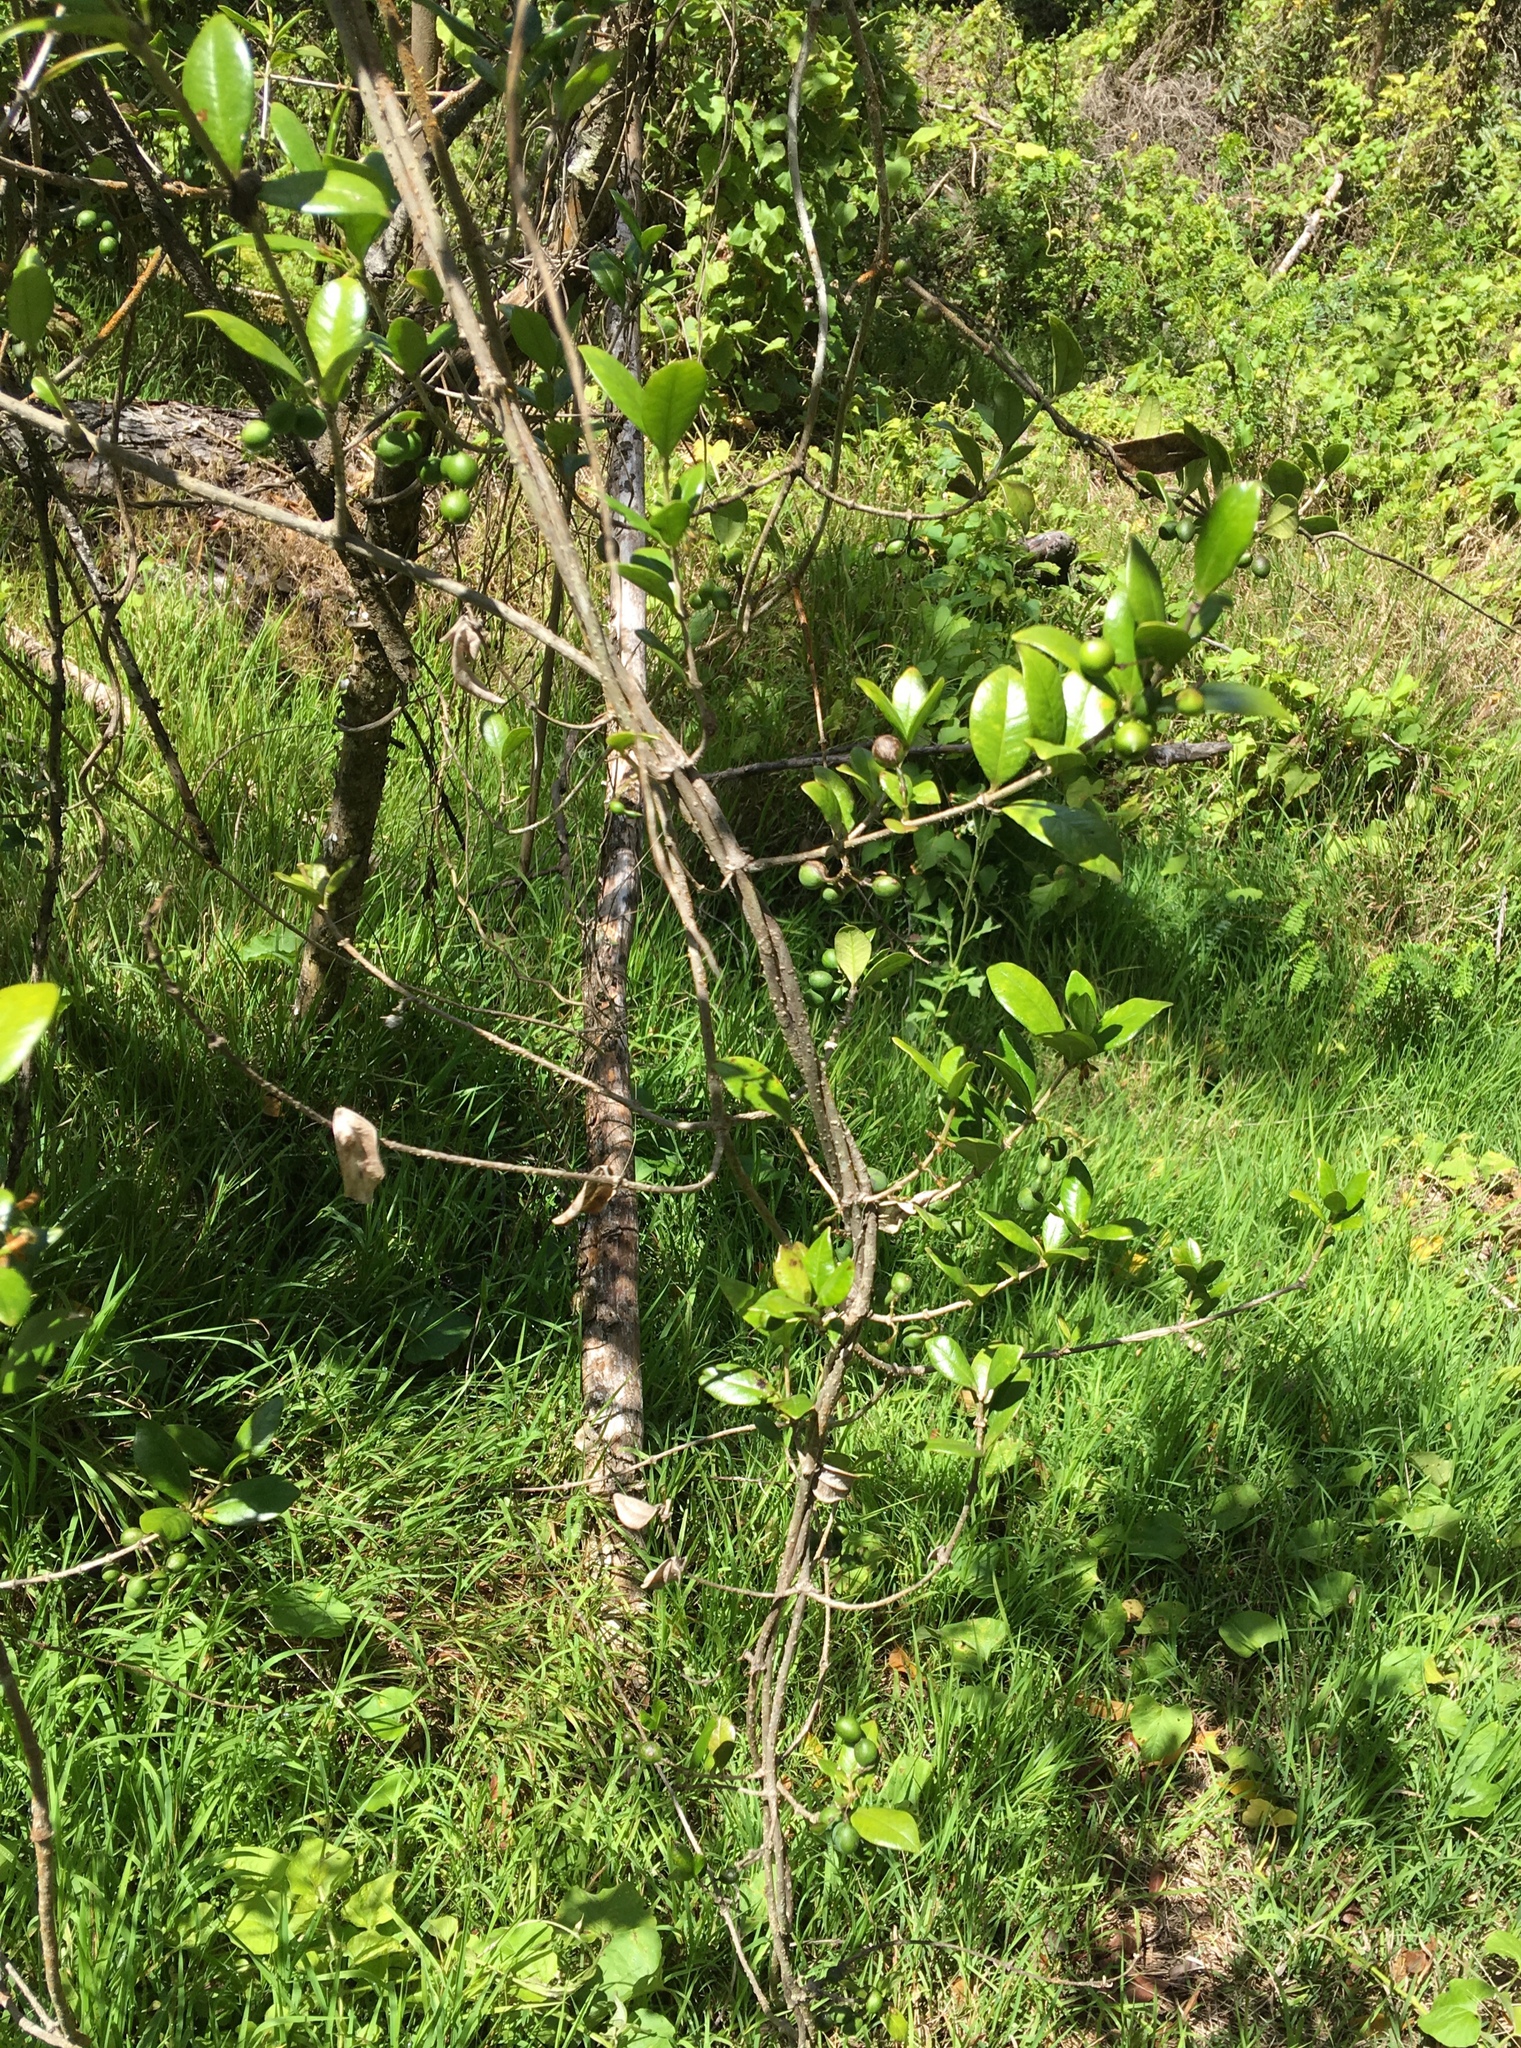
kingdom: Plantae
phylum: Tracheophyta
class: Magnoliopsida
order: Gentianales
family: Apocynaceae
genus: Alyxia
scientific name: Alyxia stellata
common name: Maile
